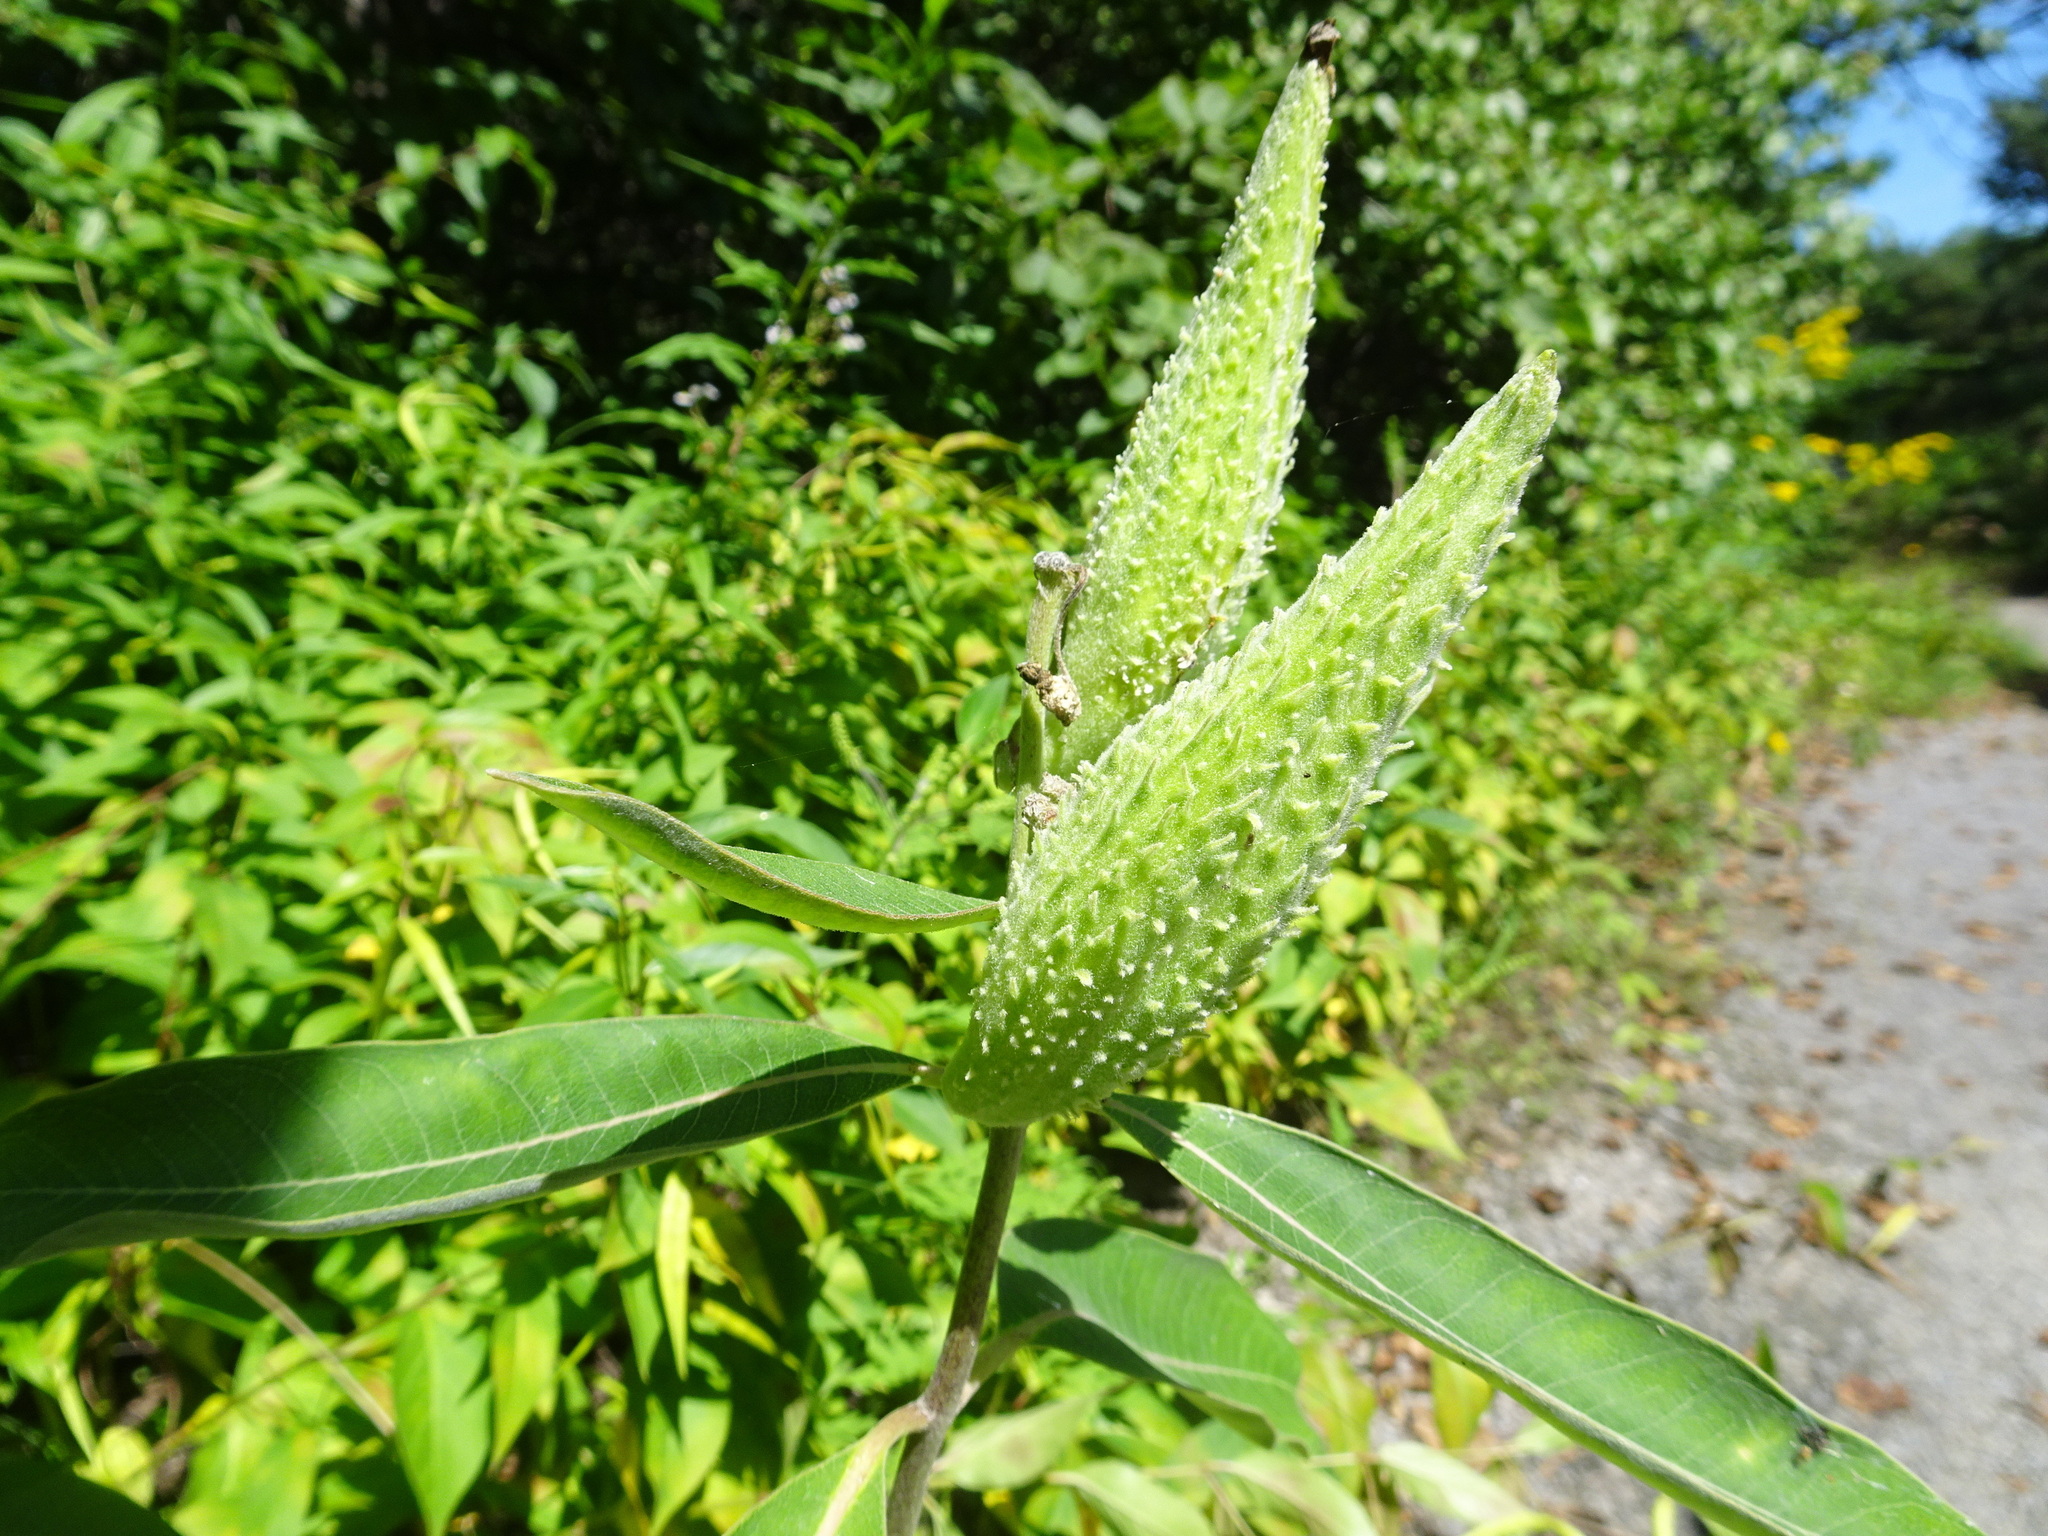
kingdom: Plantae
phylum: Tracheophyta
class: Magnoliopsida
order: Gentianales
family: Apocynaceae
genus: Asclepias
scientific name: Asclepias syriaca
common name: Common milkweed
